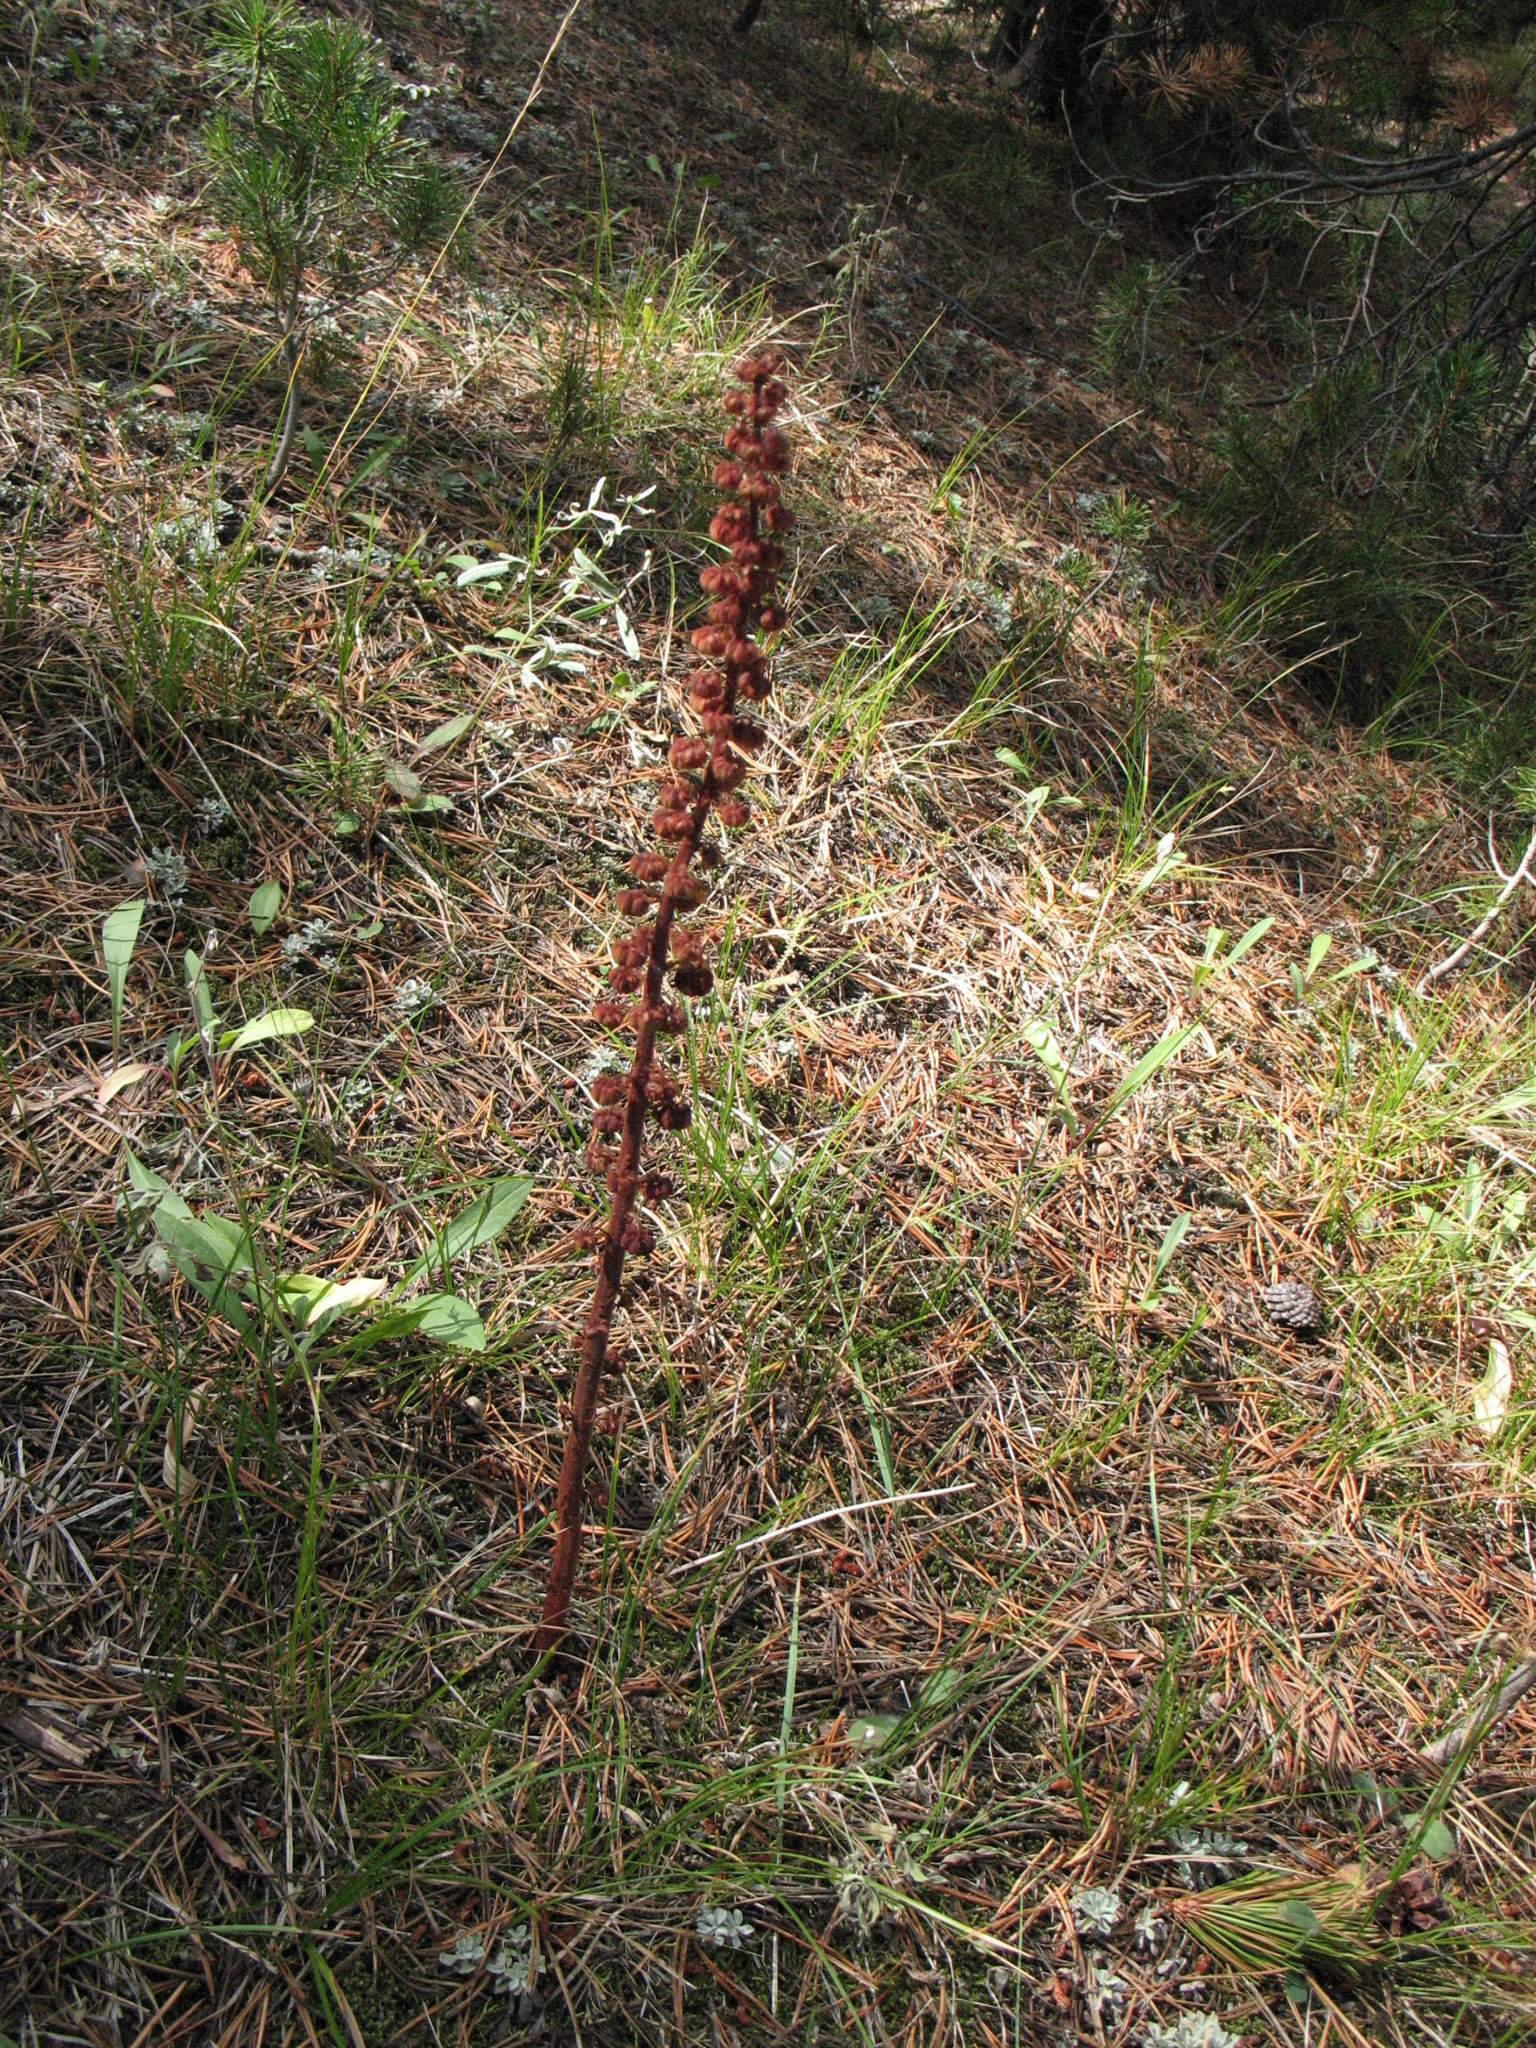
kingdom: Plantae
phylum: Tracheophyta
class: Magnoliopsida
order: Ericales
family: Ericaceae
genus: Pterospora
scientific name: Pterospora andromedea
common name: Giant bird's-nest
